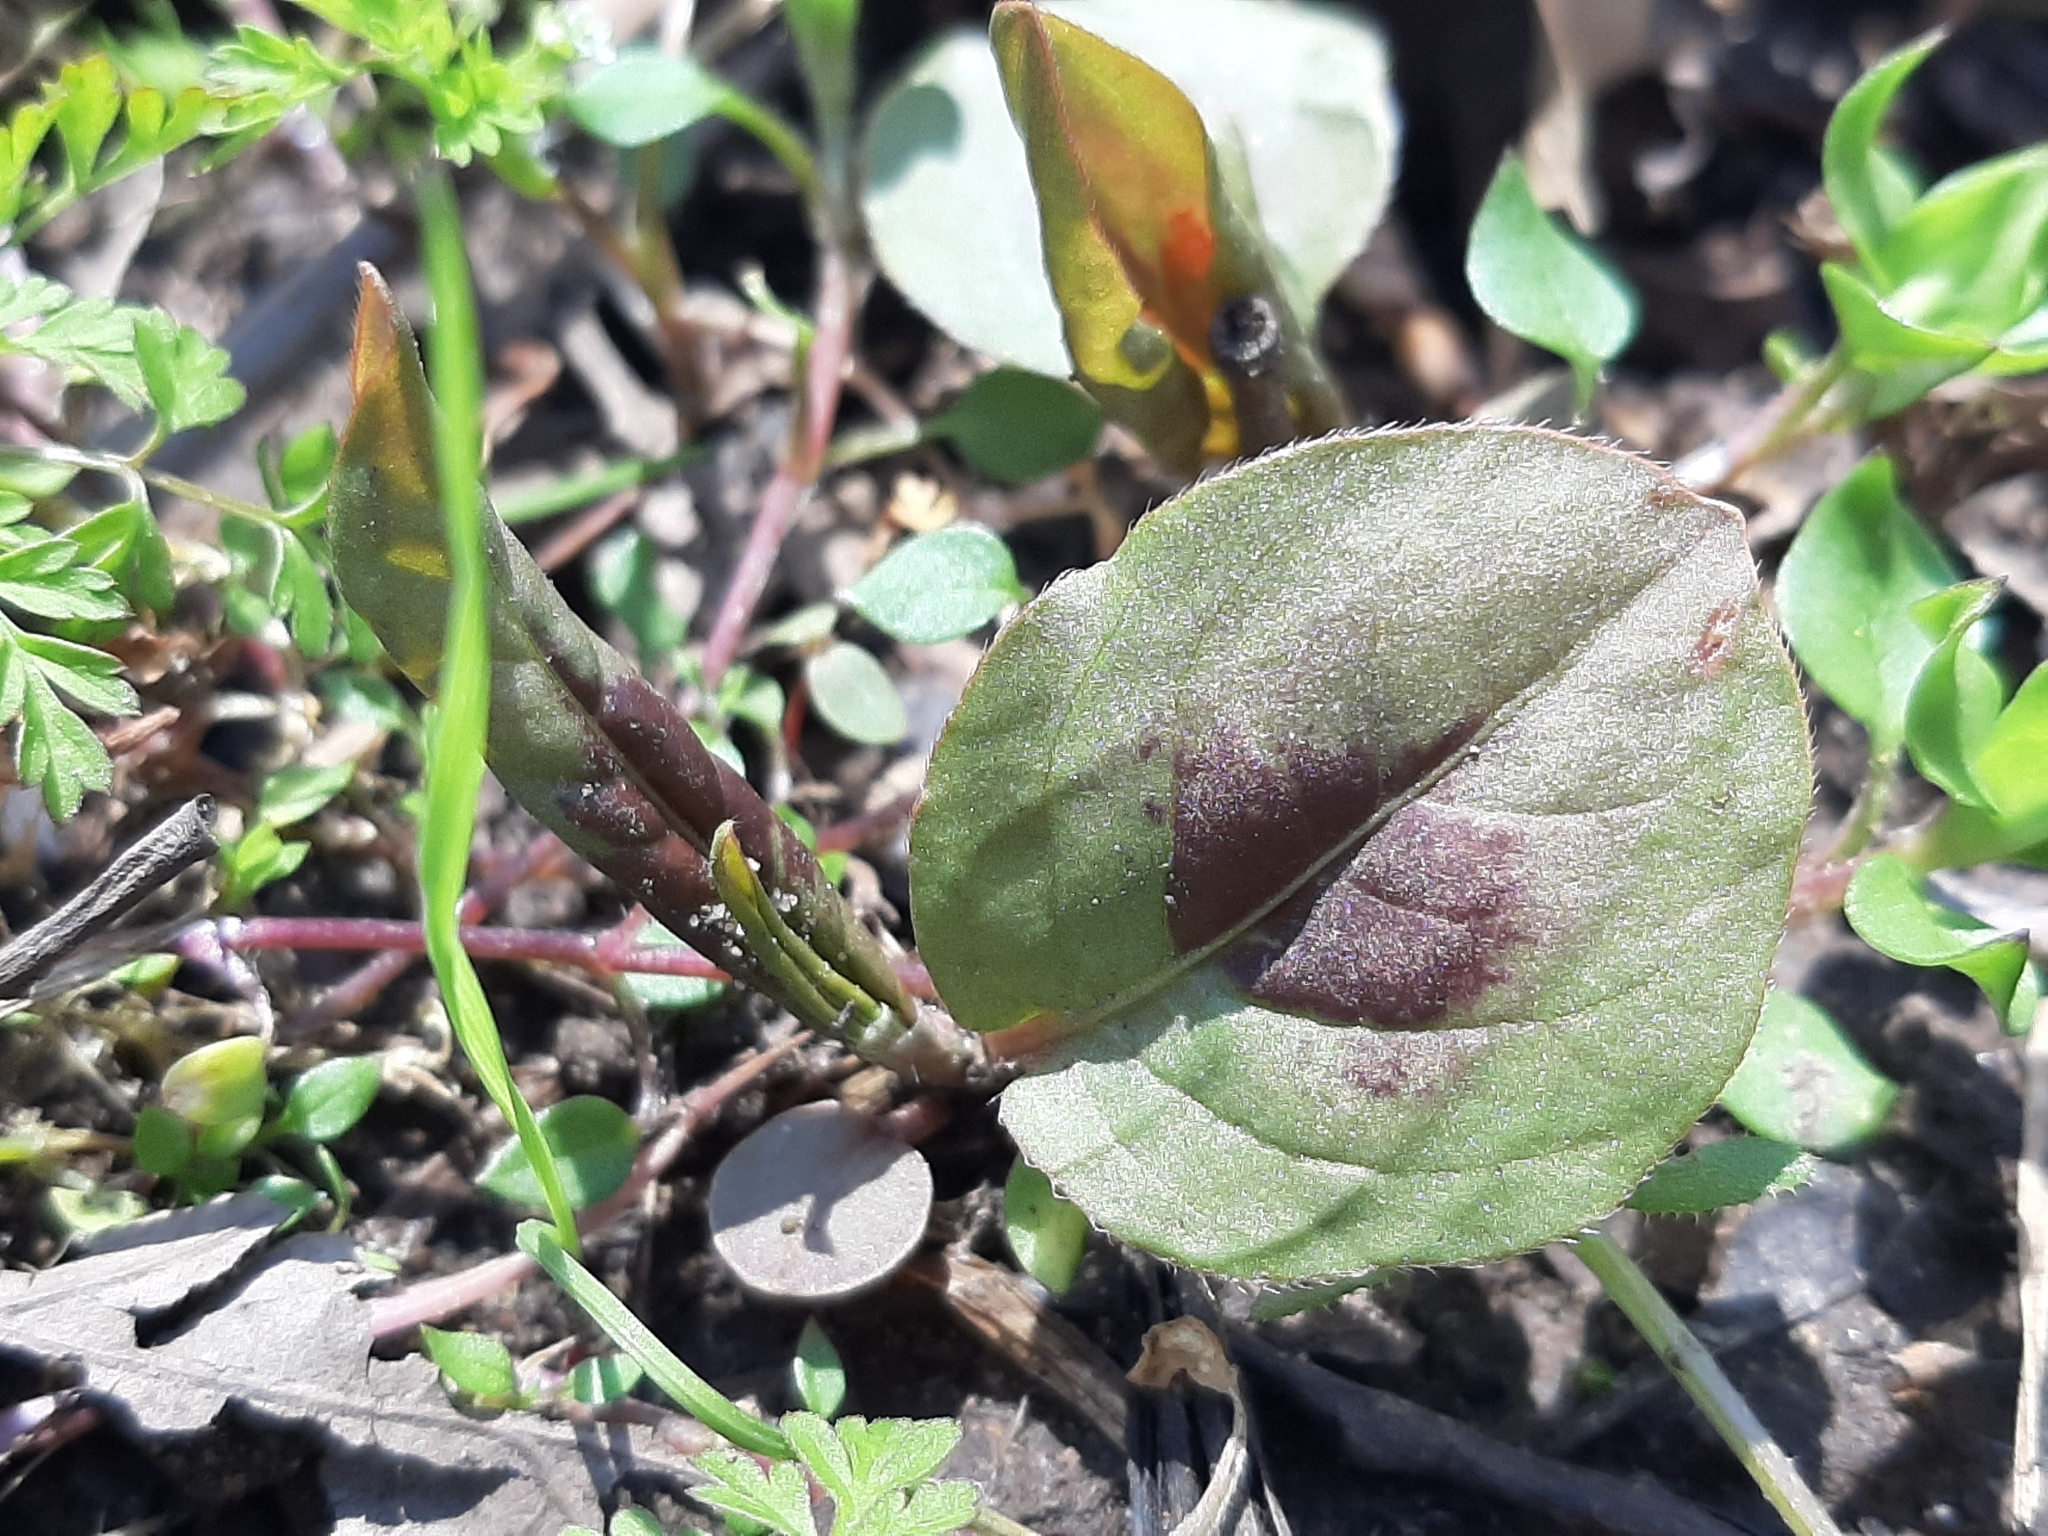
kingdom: Plantae
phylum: Tracheophyta
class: Magnoliopsida
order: Caryophyllales
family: Polygonaceae
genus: Persicaria
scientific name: Persicaria virginiana
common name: Jumpseed
